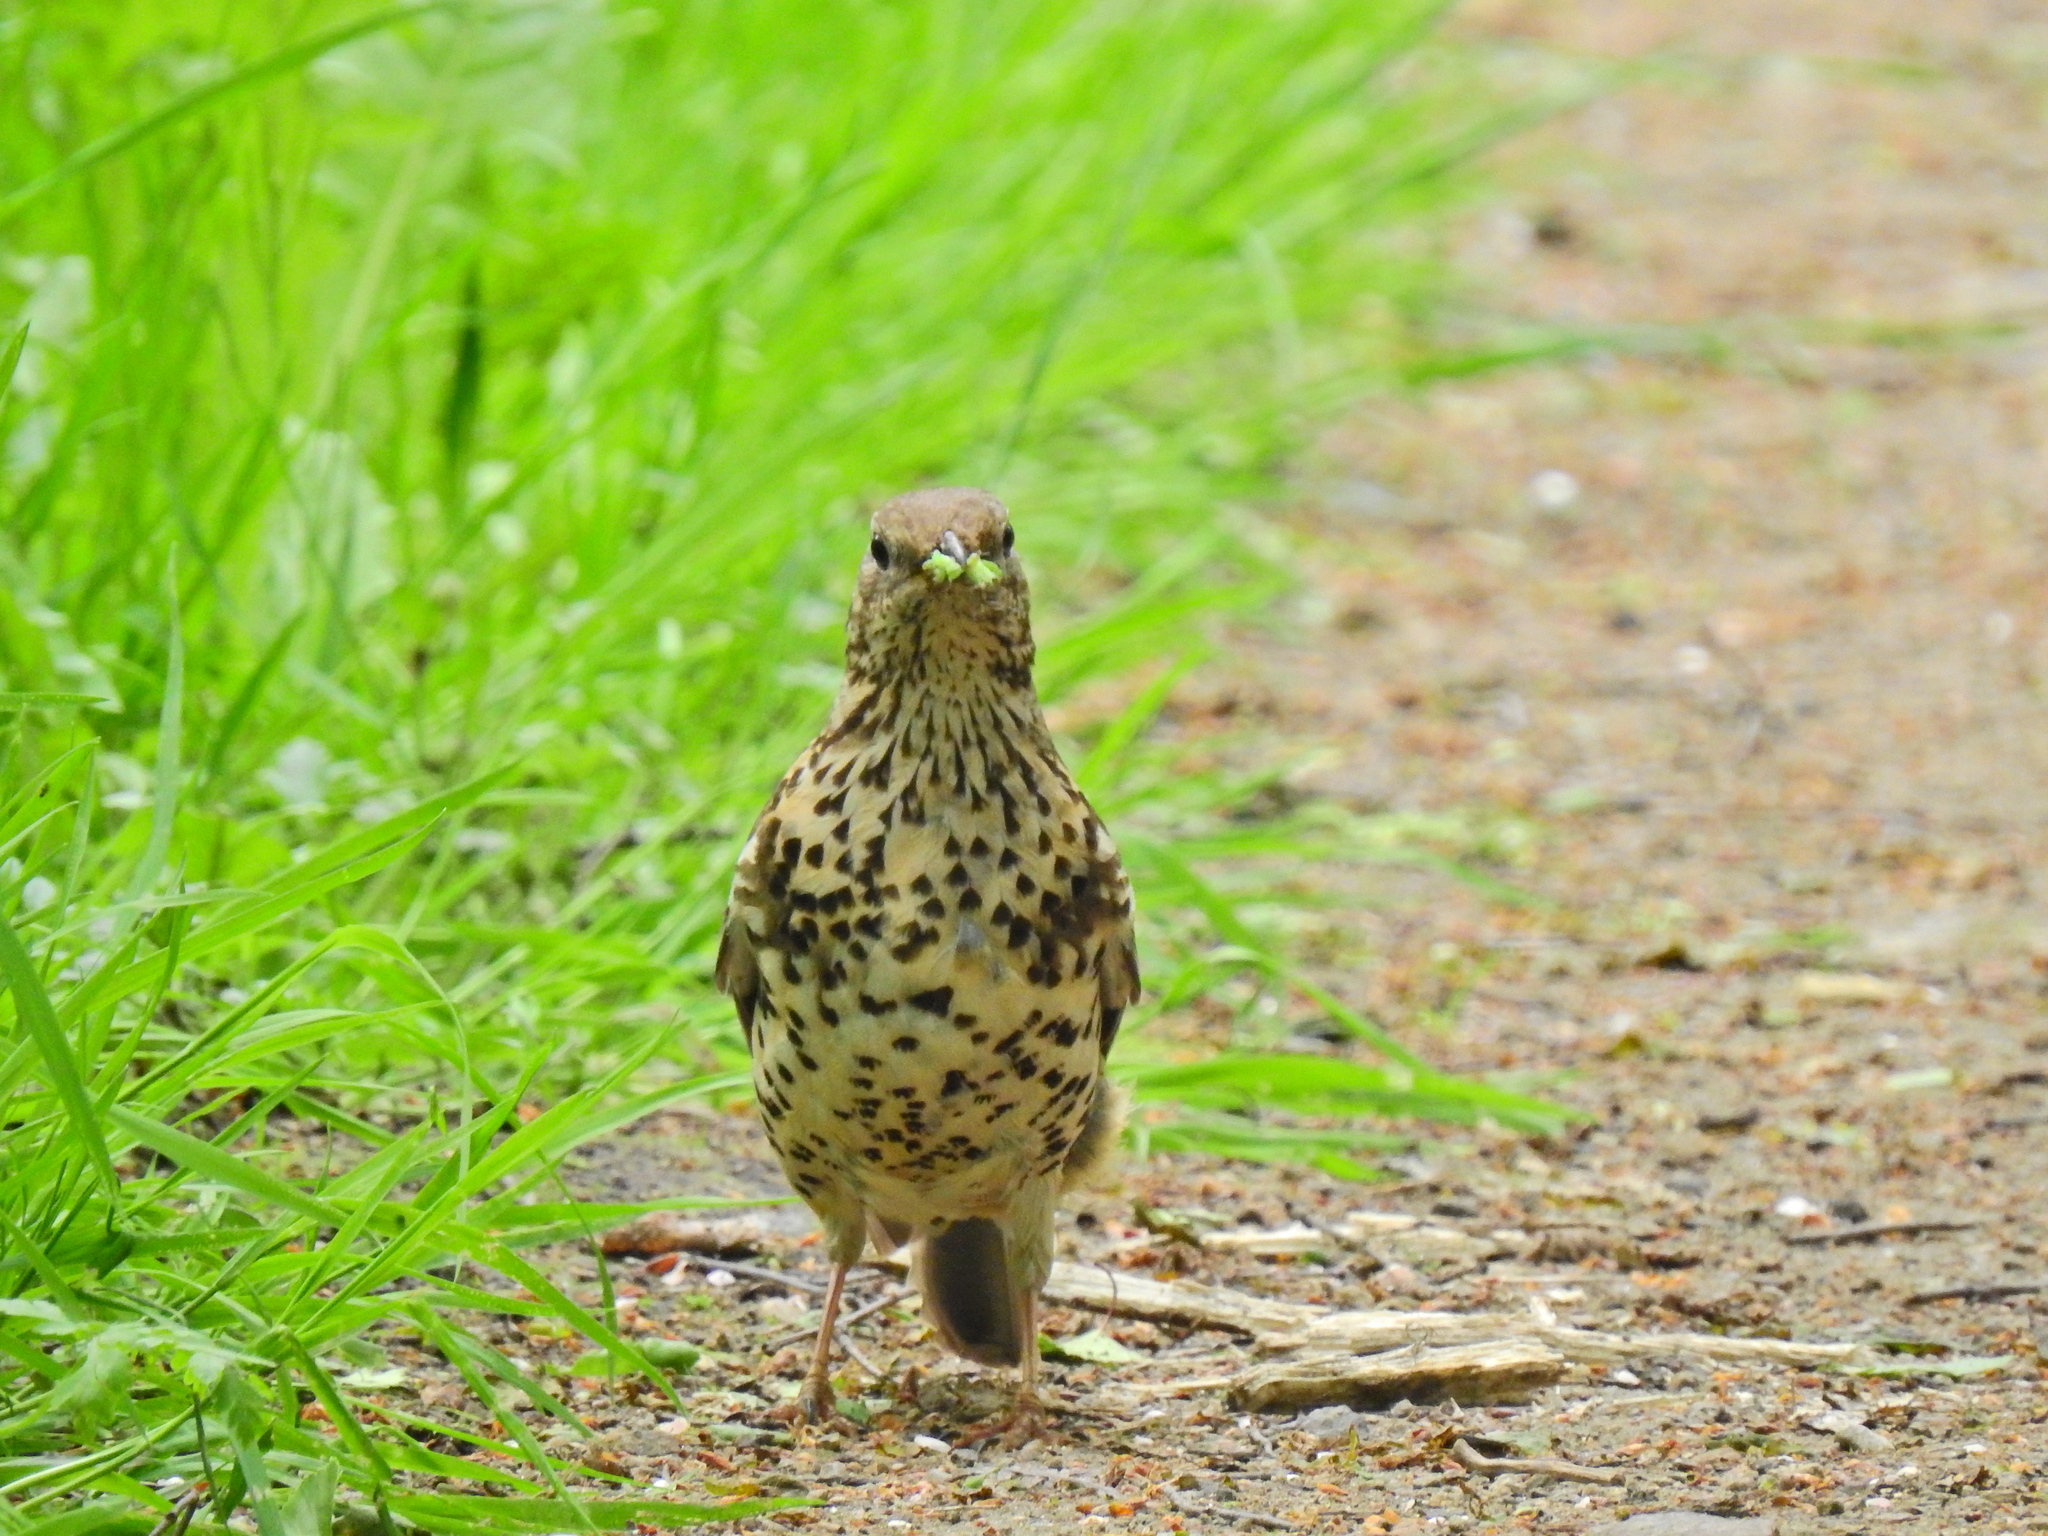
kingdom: Animalia
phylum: Chordata
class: Aves
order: Passeriformes
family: Turdidae
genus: Turdus
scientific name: Turdus viscivorus
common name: Mistle thrush
